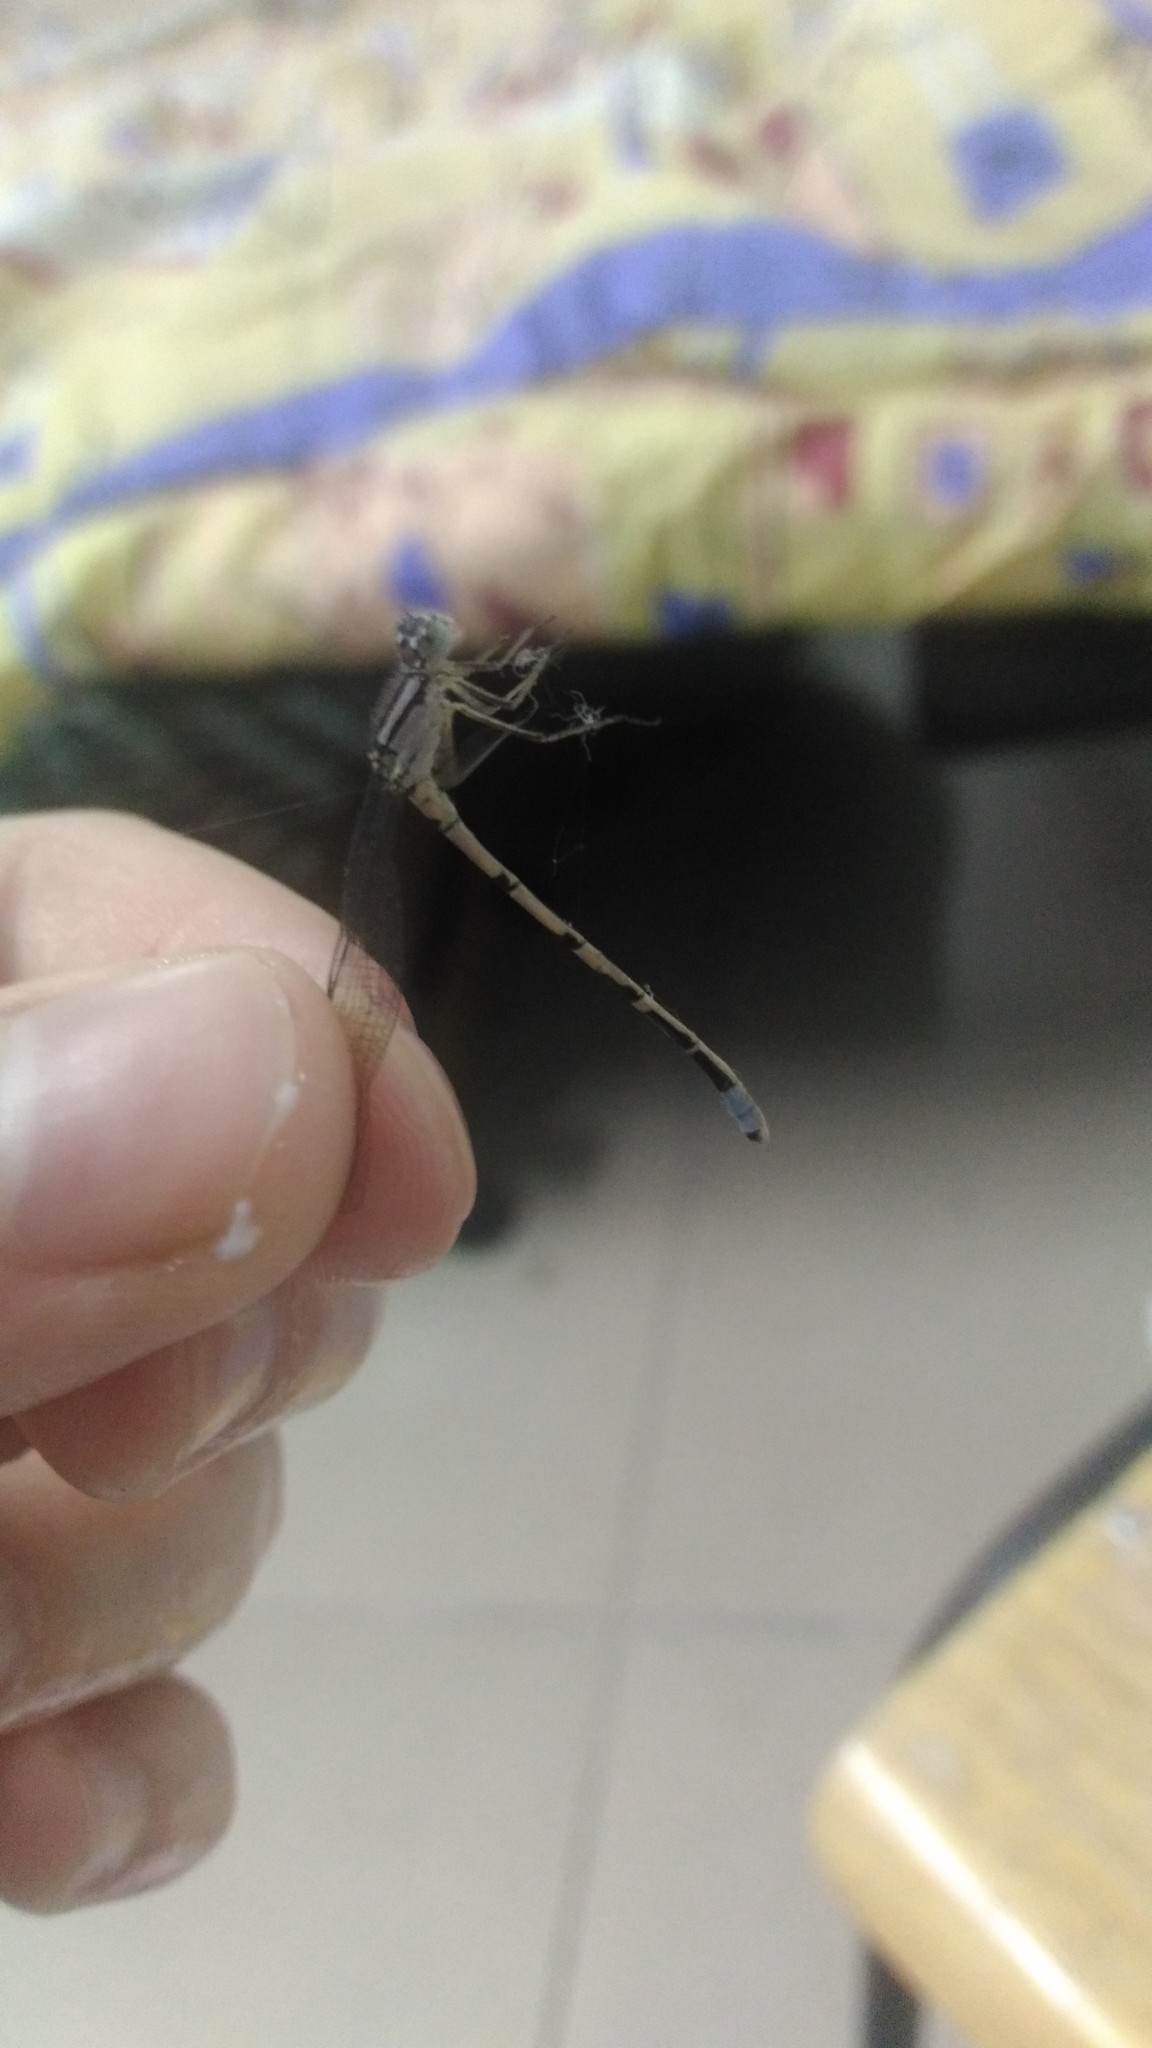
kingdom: Animalia
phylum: Arthropoda
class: Insecta
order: Odonata
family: Coenagrionidae
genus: Enallagma
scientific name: Enallagma cyathigerum
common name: Common blue damselfly
